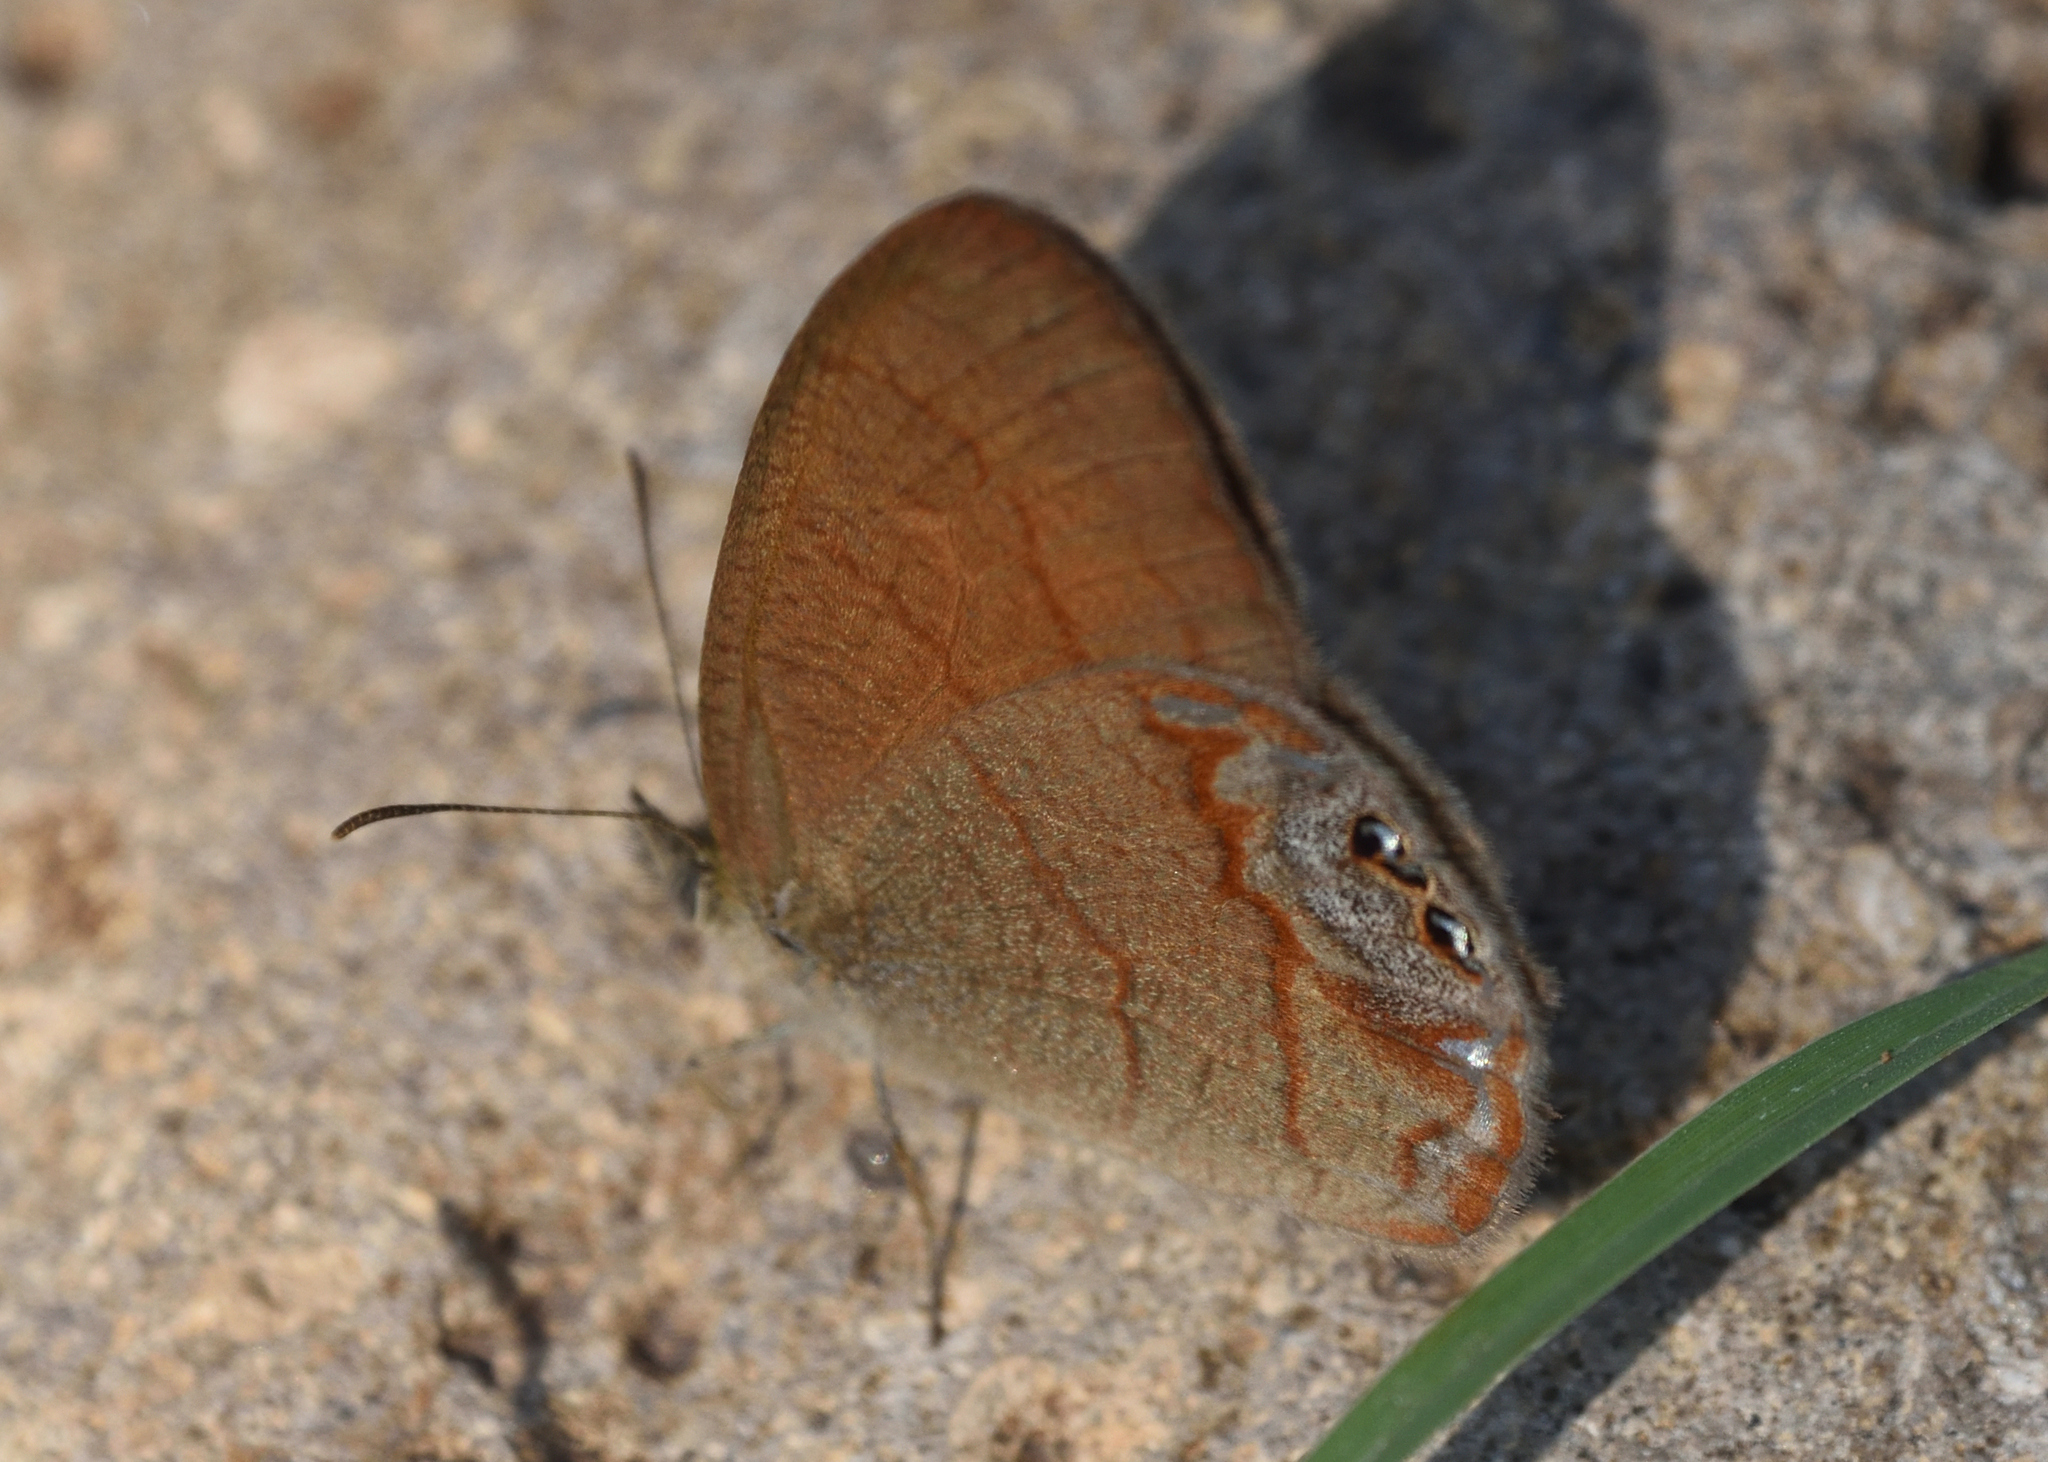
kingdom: Animalia
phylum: Arthropoda
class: Insecta
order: Lepidoptera
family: Nymphalidae
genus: Euptychia
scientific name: Euptychia pyracmon
